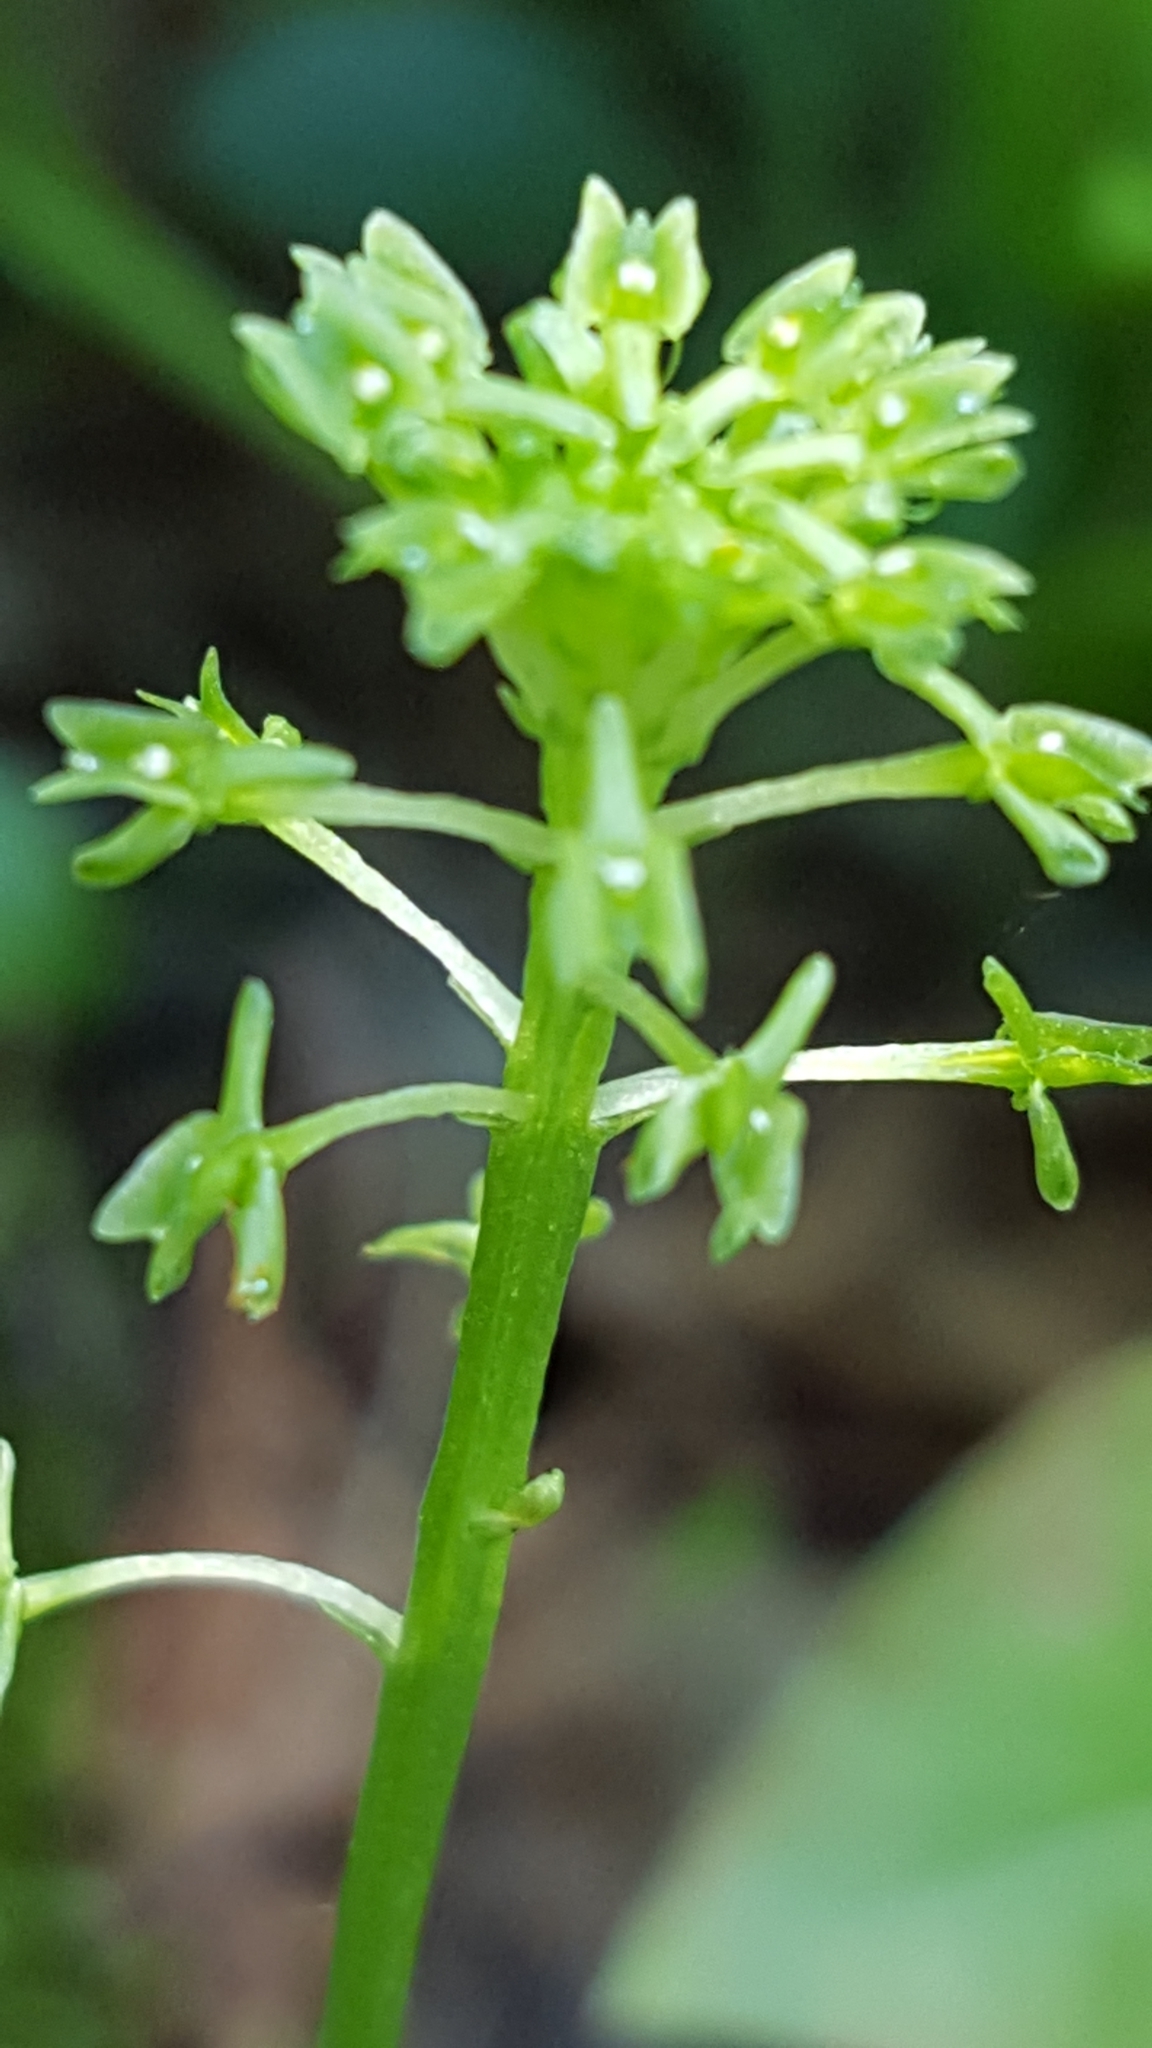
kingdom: Plantae
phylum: Tracheophyta
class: Liliopsida
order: Asparagales
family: Orchidaceae
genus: Malaxis
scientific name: Malaxis unifolia
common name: Green adder's-mouth
